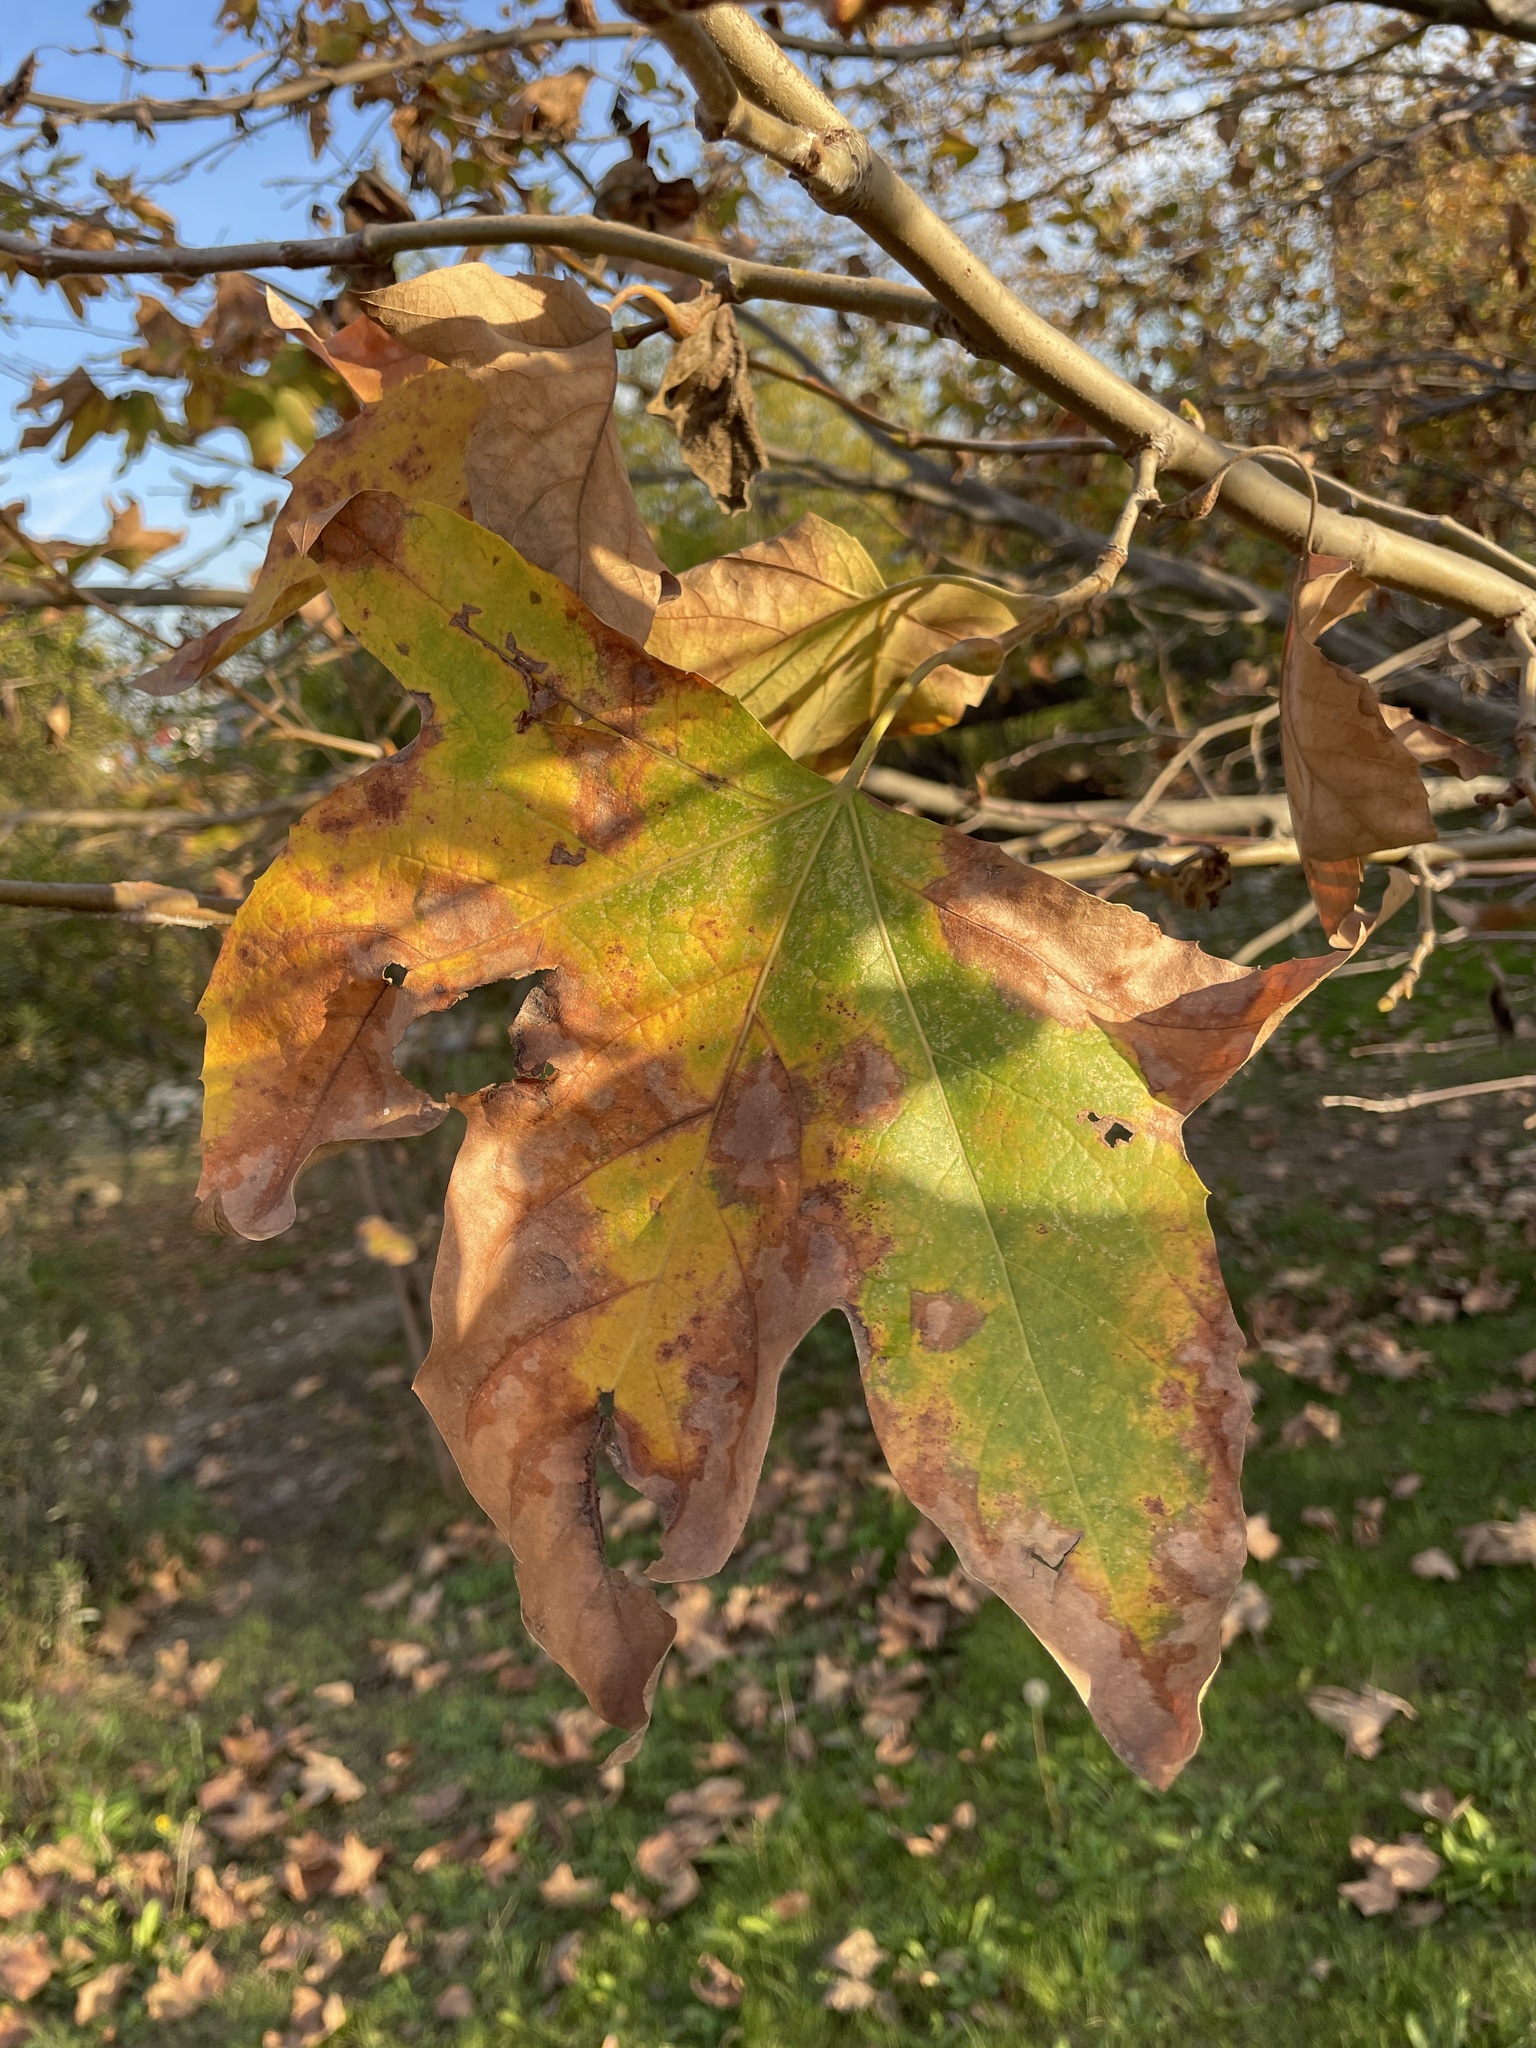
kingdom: Plantae
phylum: Tracheophyta
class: Magnoliopsida
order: Proteales
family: Platanaceae
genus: Platanus
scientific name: Platanus racemosa
